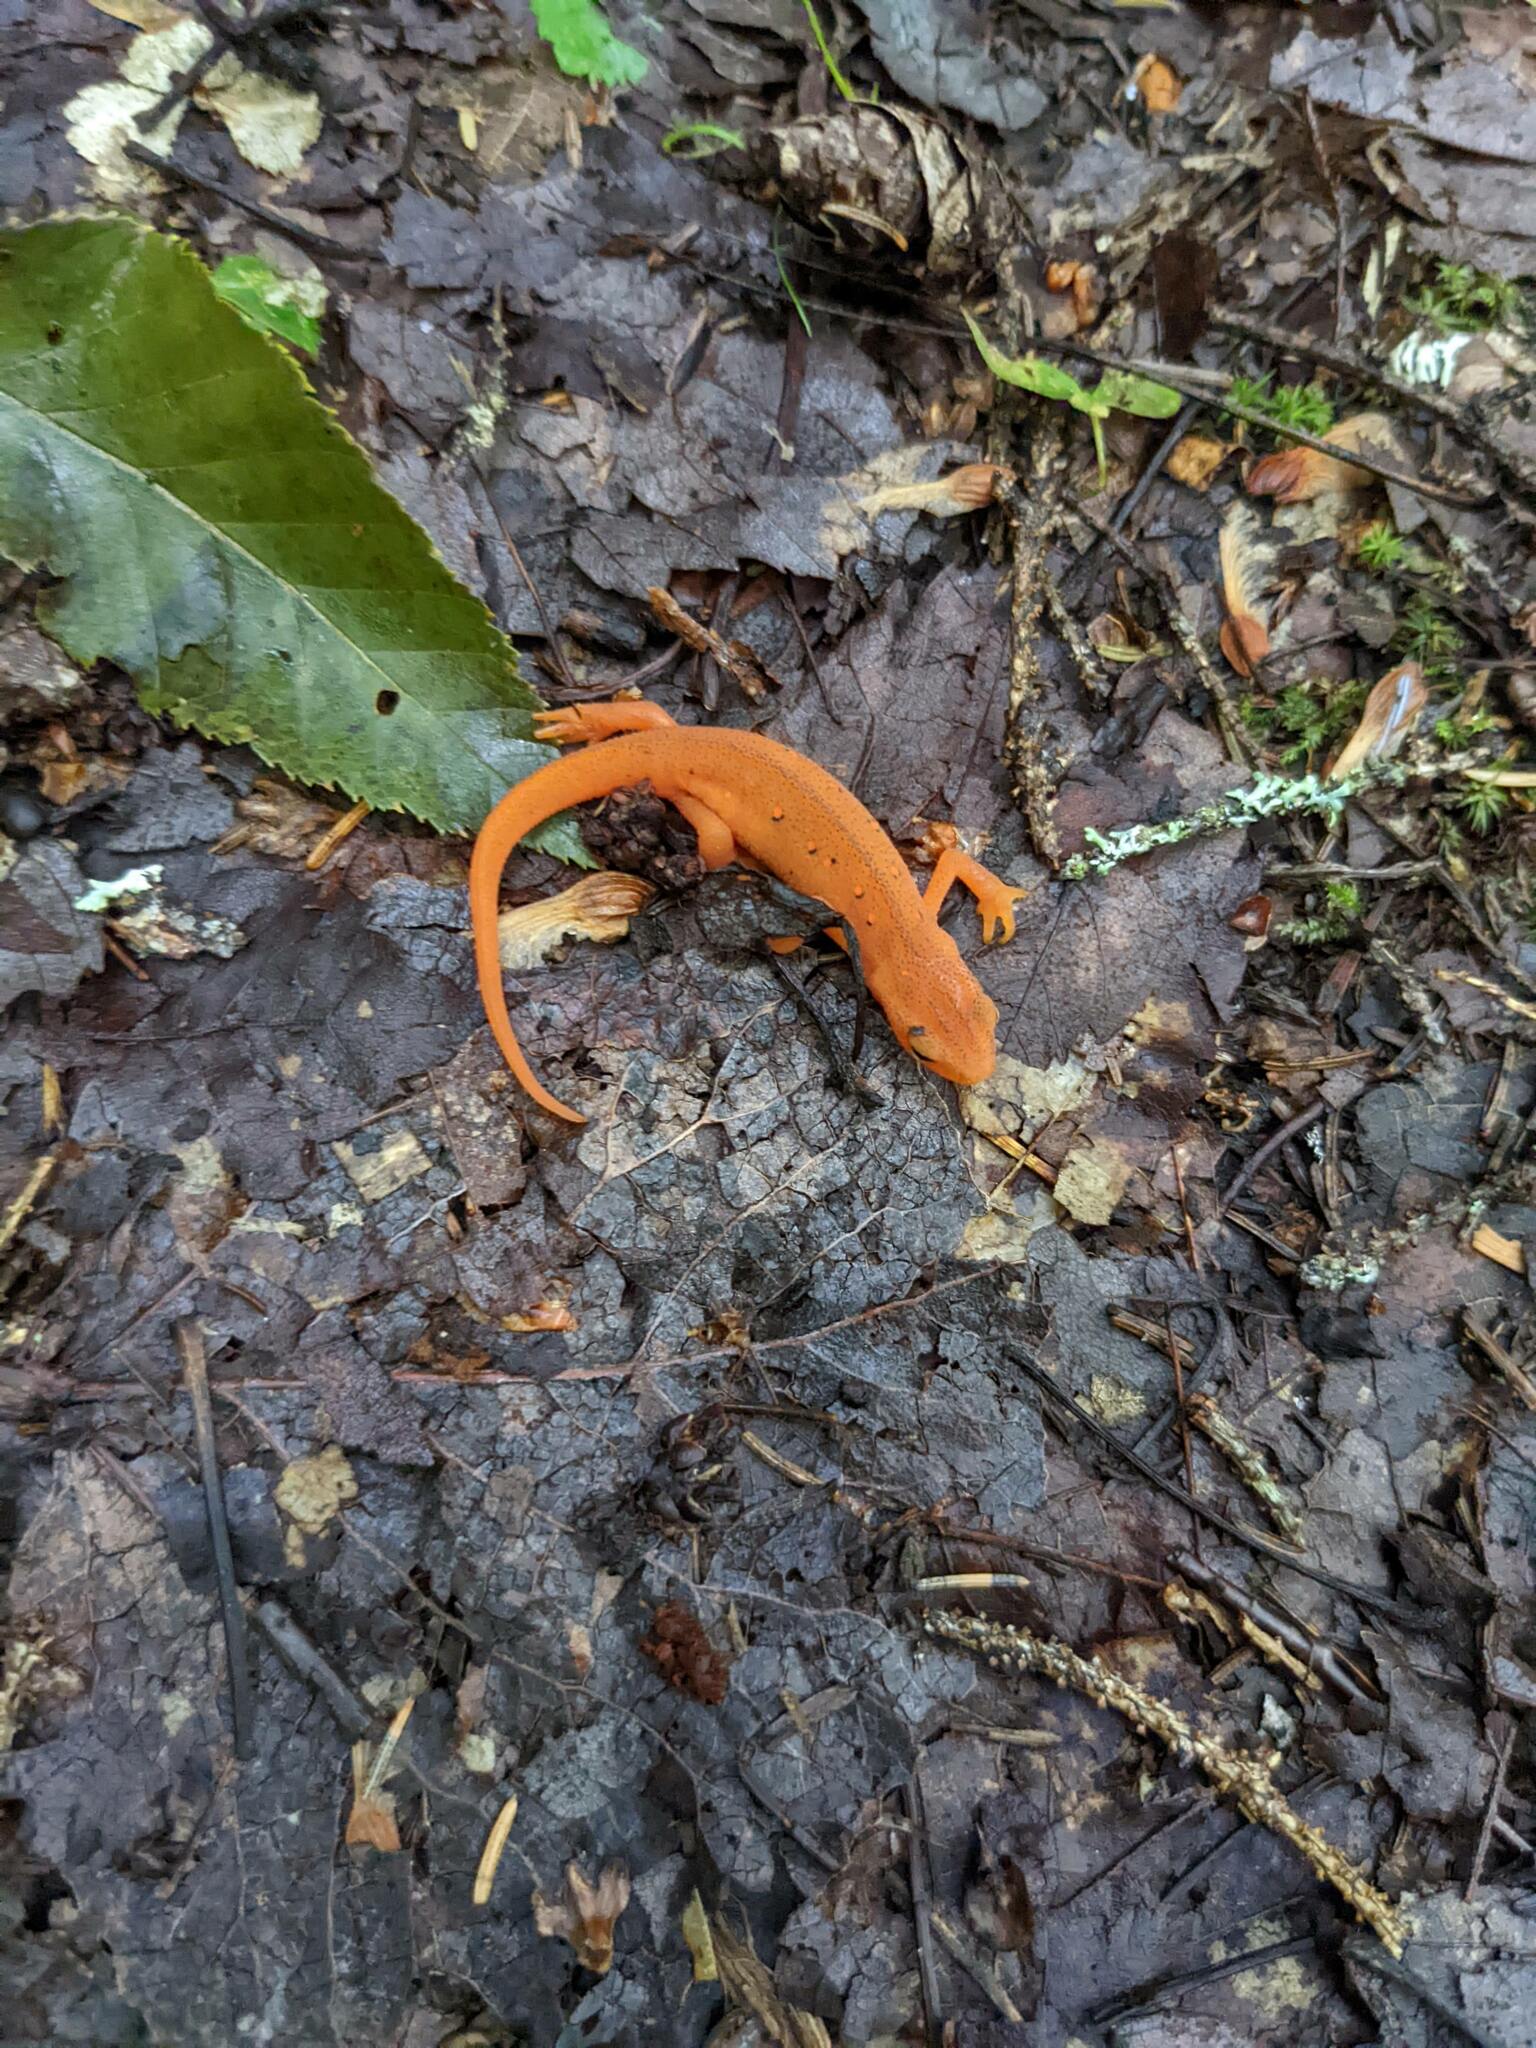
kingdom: Animalia
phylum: Chordata
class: Amphibia
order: Caudata
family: Salamandridae
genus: Notophthalmus
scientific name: Notophthalmus viridescens
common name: Eastern newt
